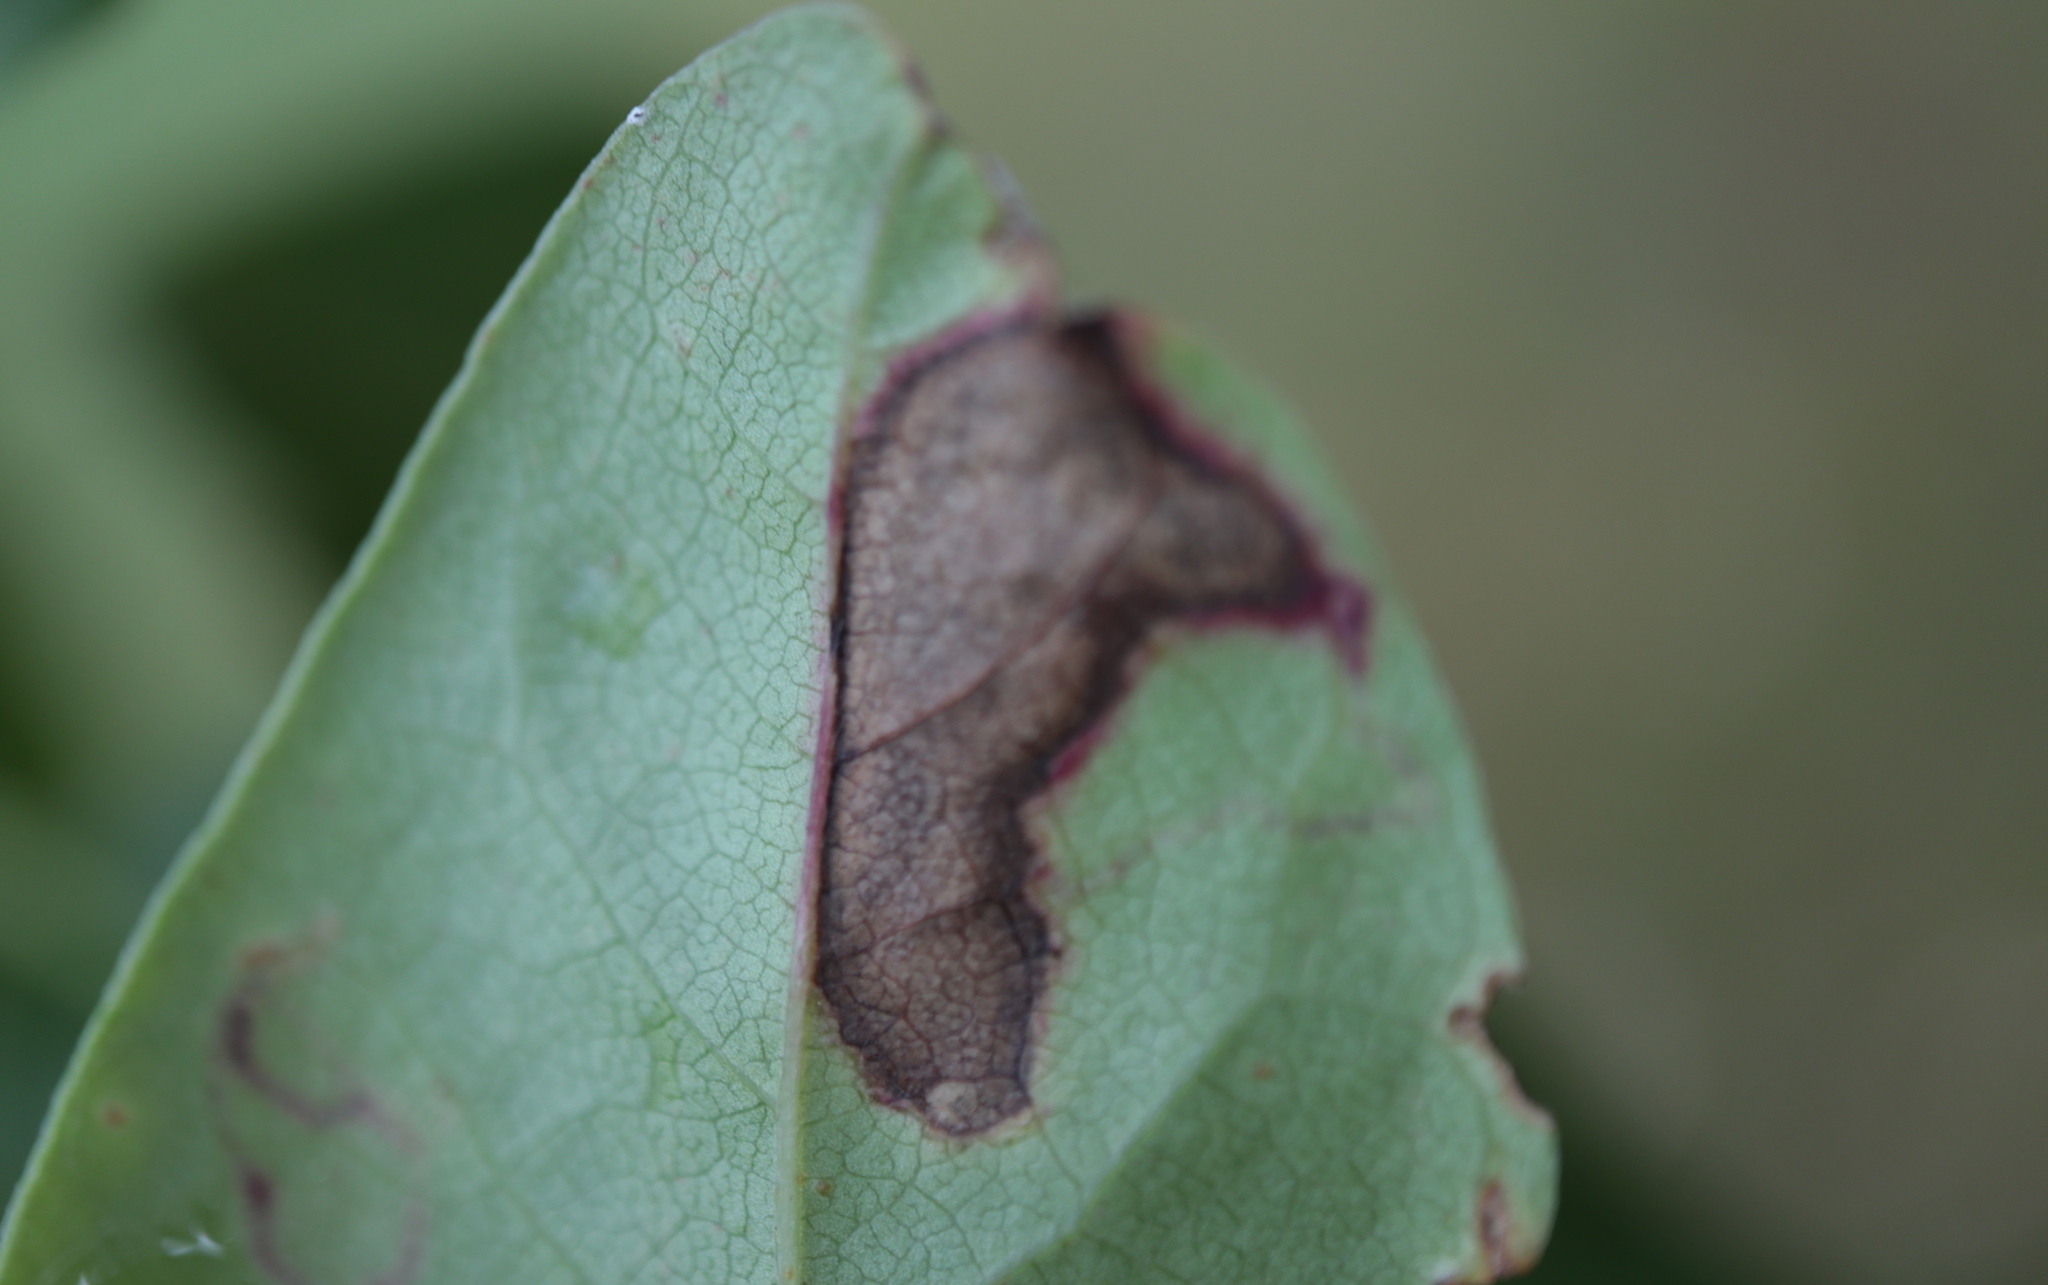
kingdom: Animalia
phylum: Arthropoda
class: Insecta
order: Lepidoptera
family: Nepticulidae
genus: Ectoedemia
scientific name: Ectoedemia nyssaefoliella
